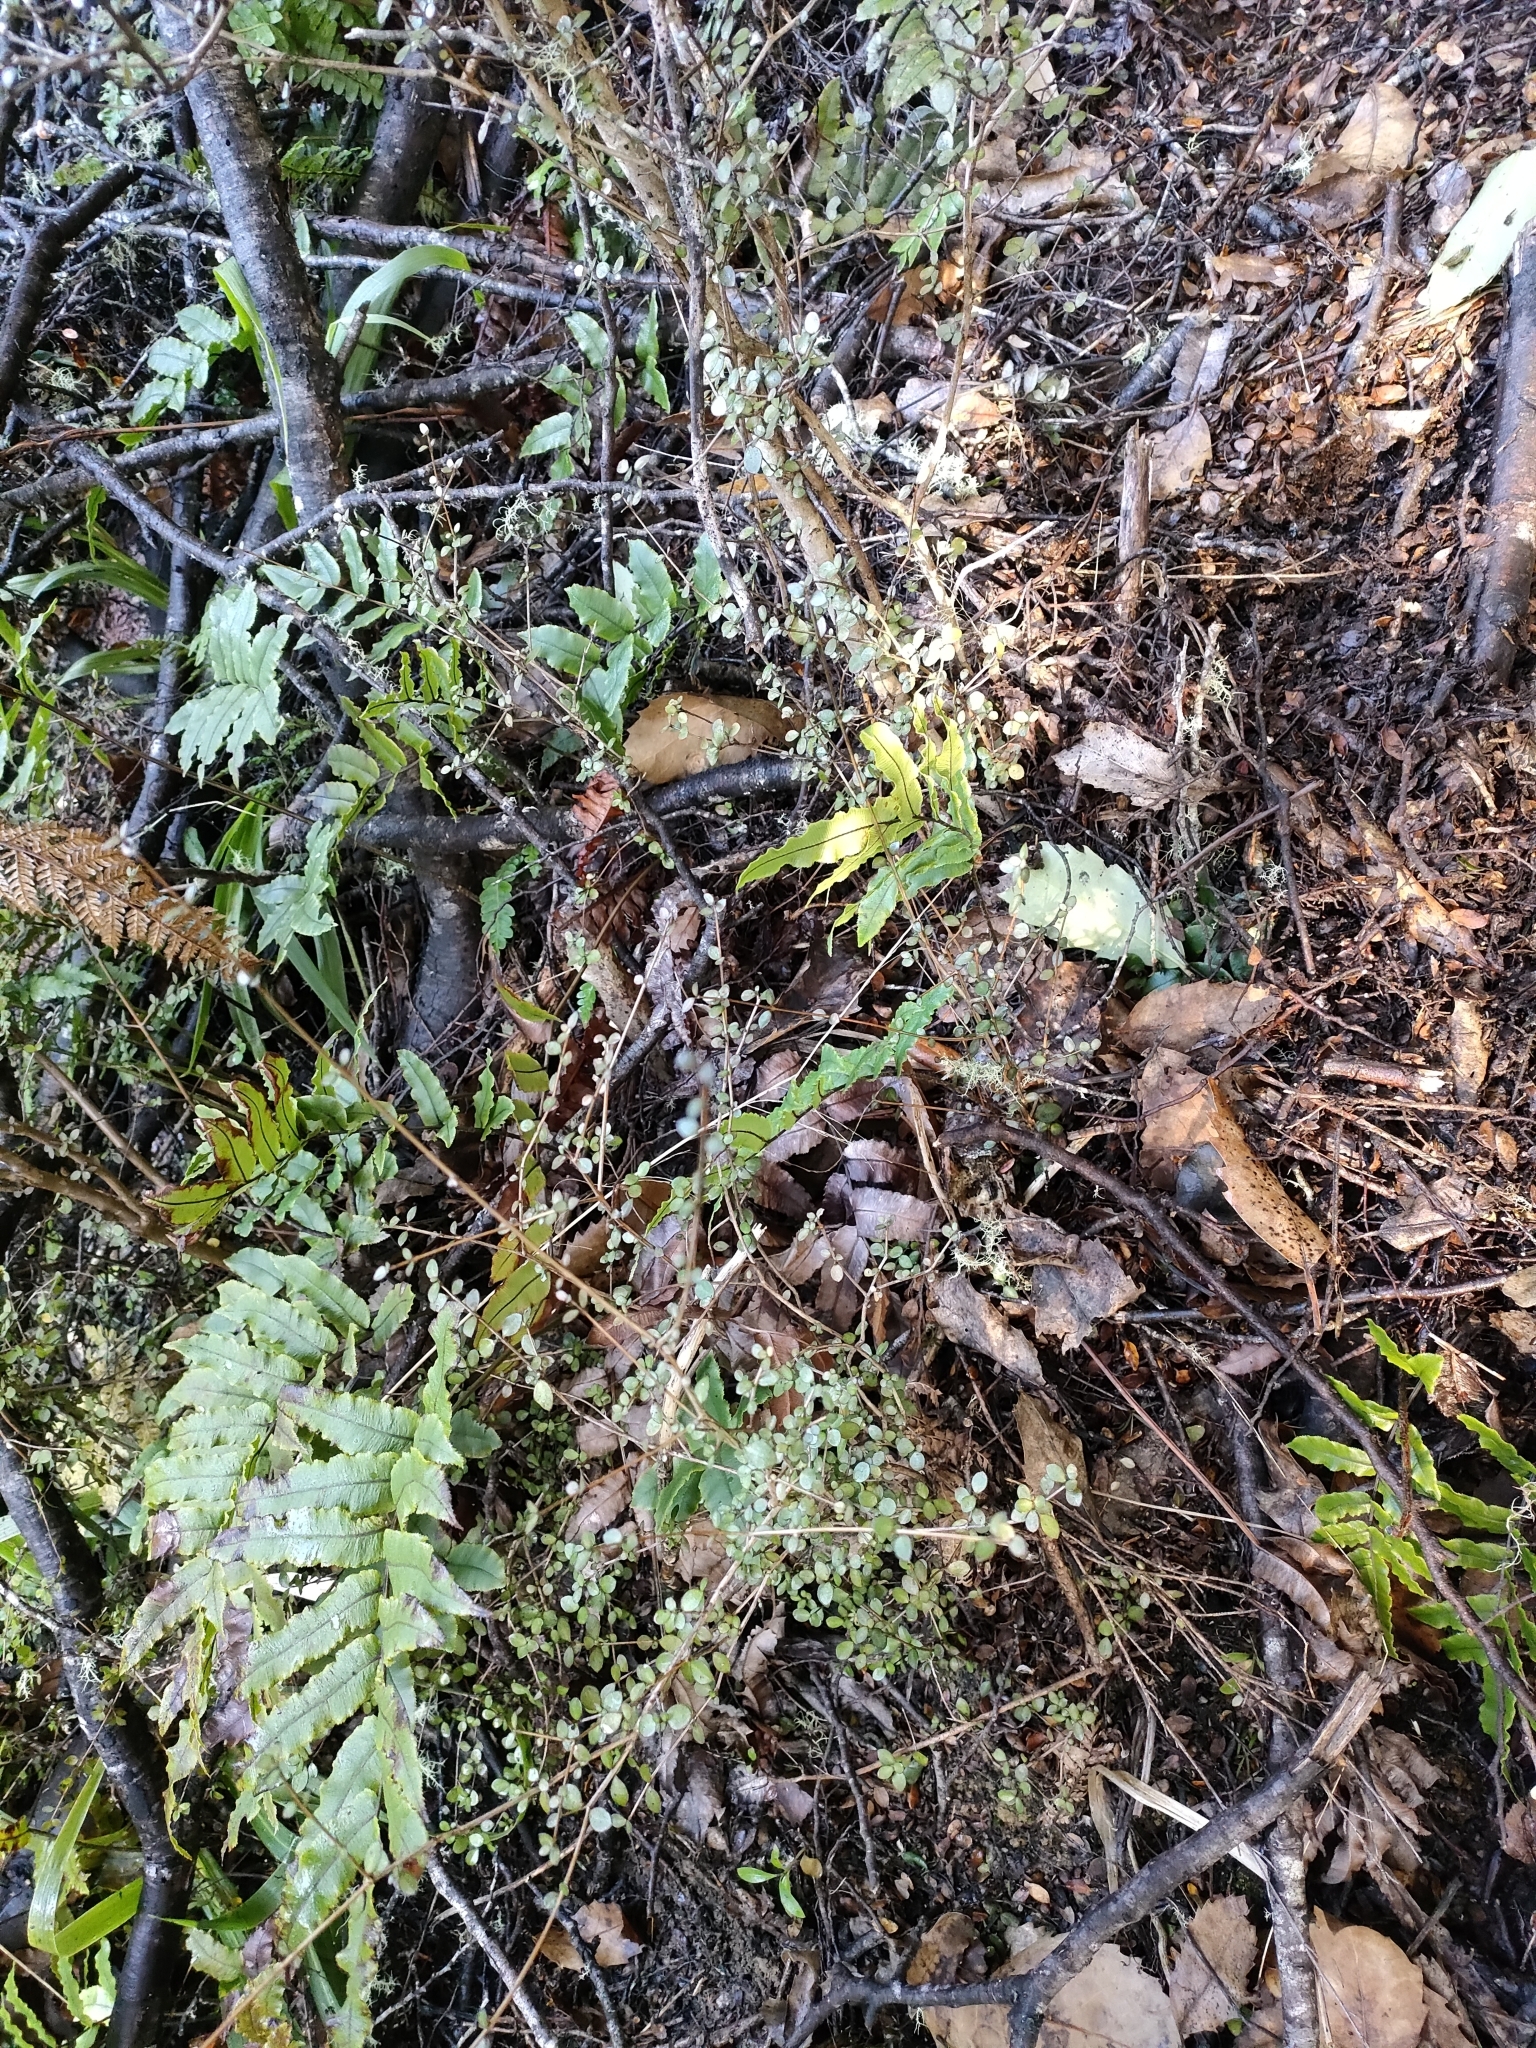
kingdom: Plantae
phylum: Tracheophyta
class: Magnoliopsida
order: Myrtales
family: Myrtaceae
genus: Neomyrtus
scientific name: Neomyrtus pedunculata
